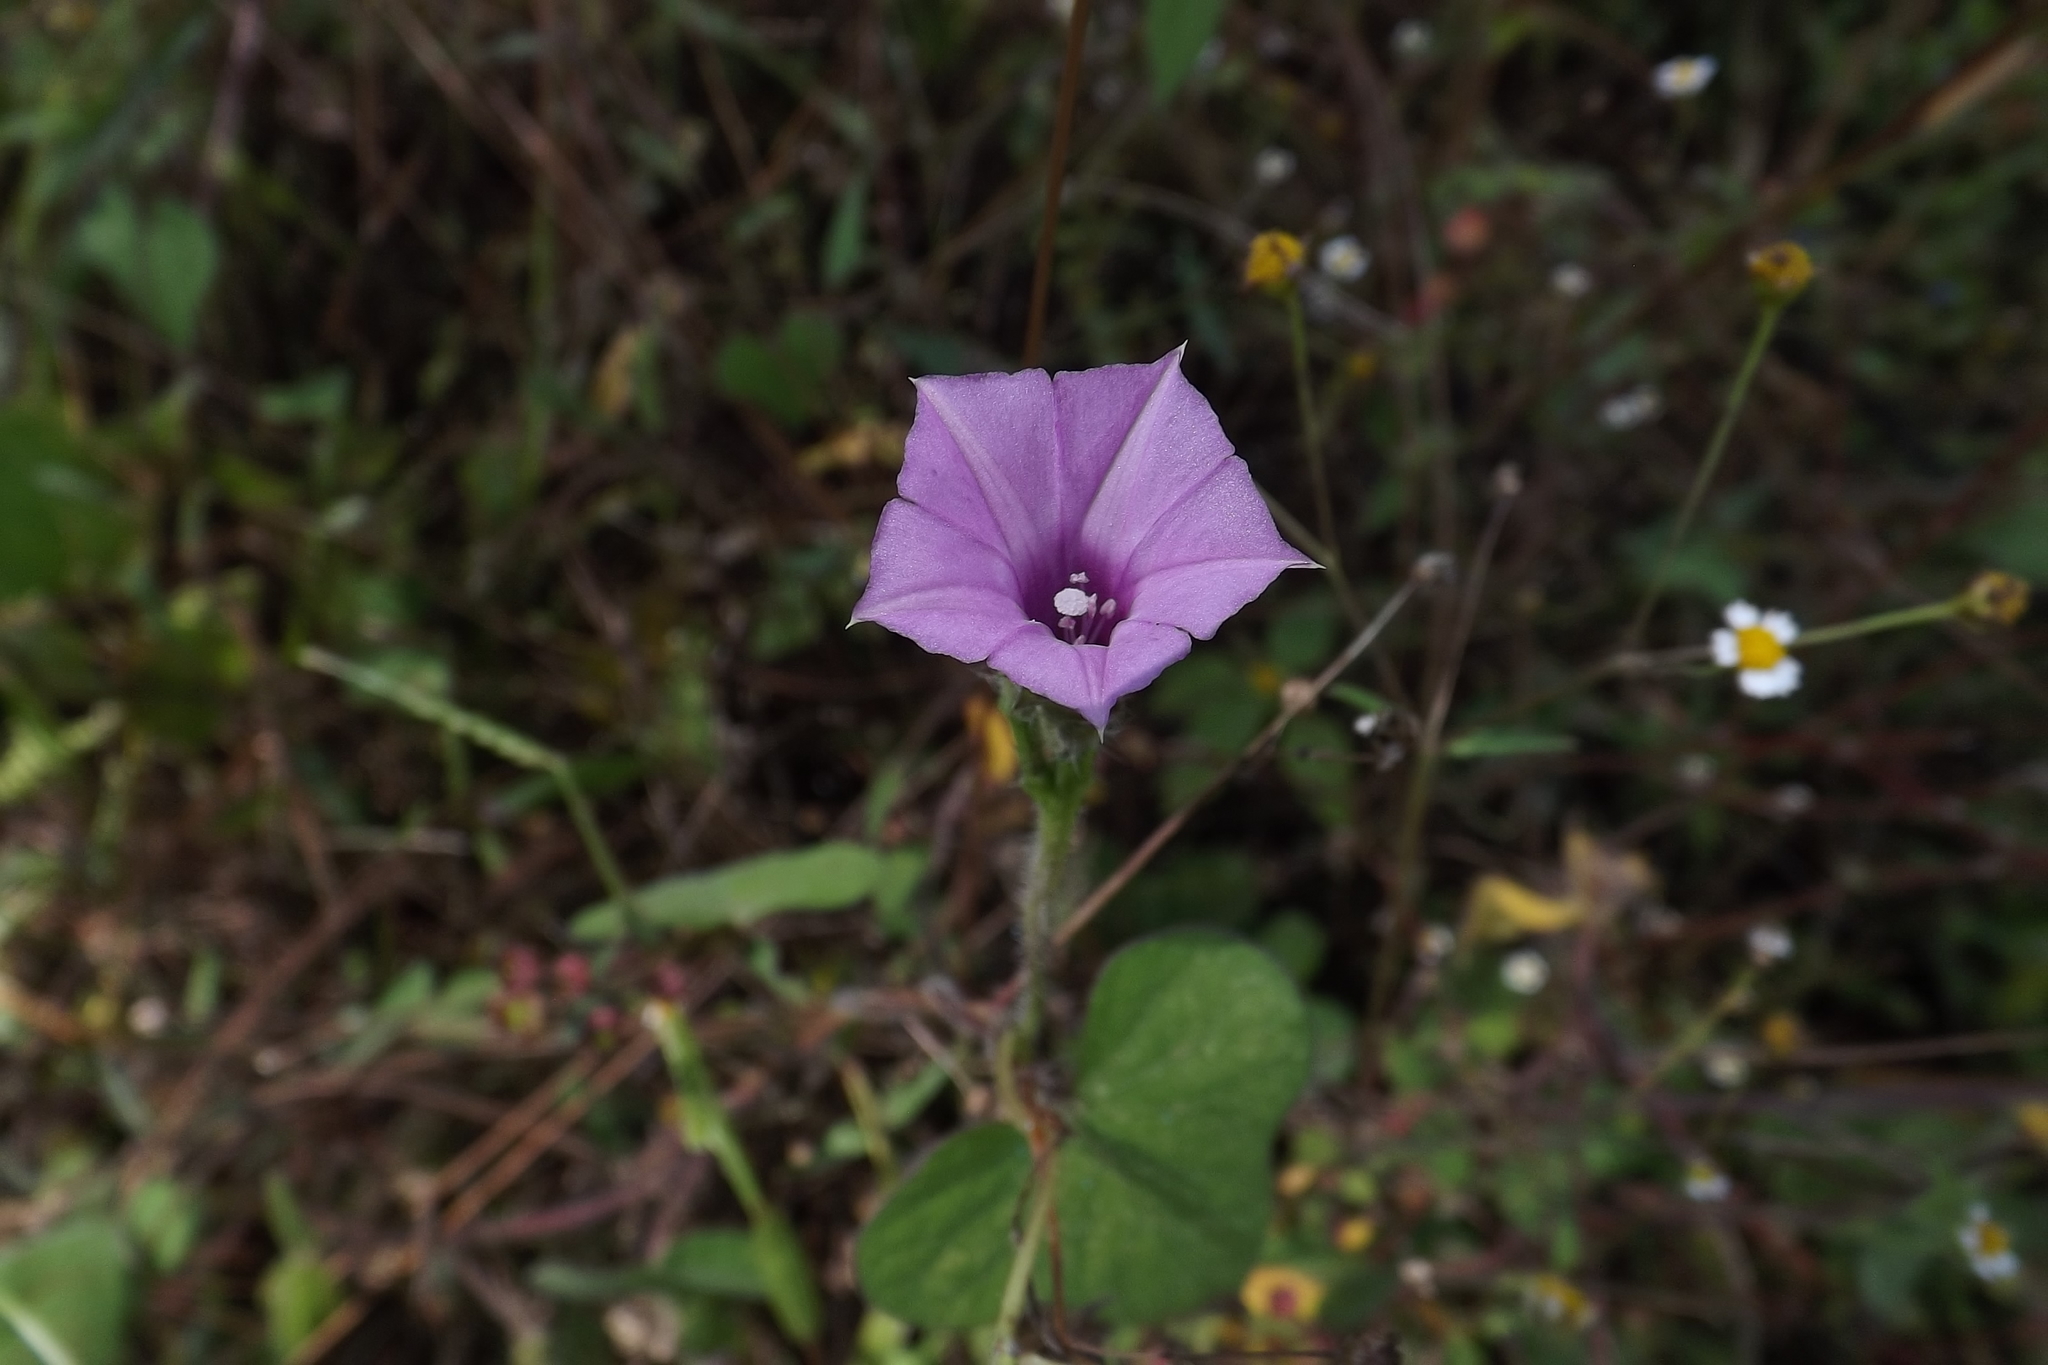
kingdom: Plantae
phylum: Tracheophyta
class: Magnoliopsida
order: Solanales
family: Convolvulaceae
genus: Ipomoea
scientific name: Ipomoea triloba
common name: Little-bell
